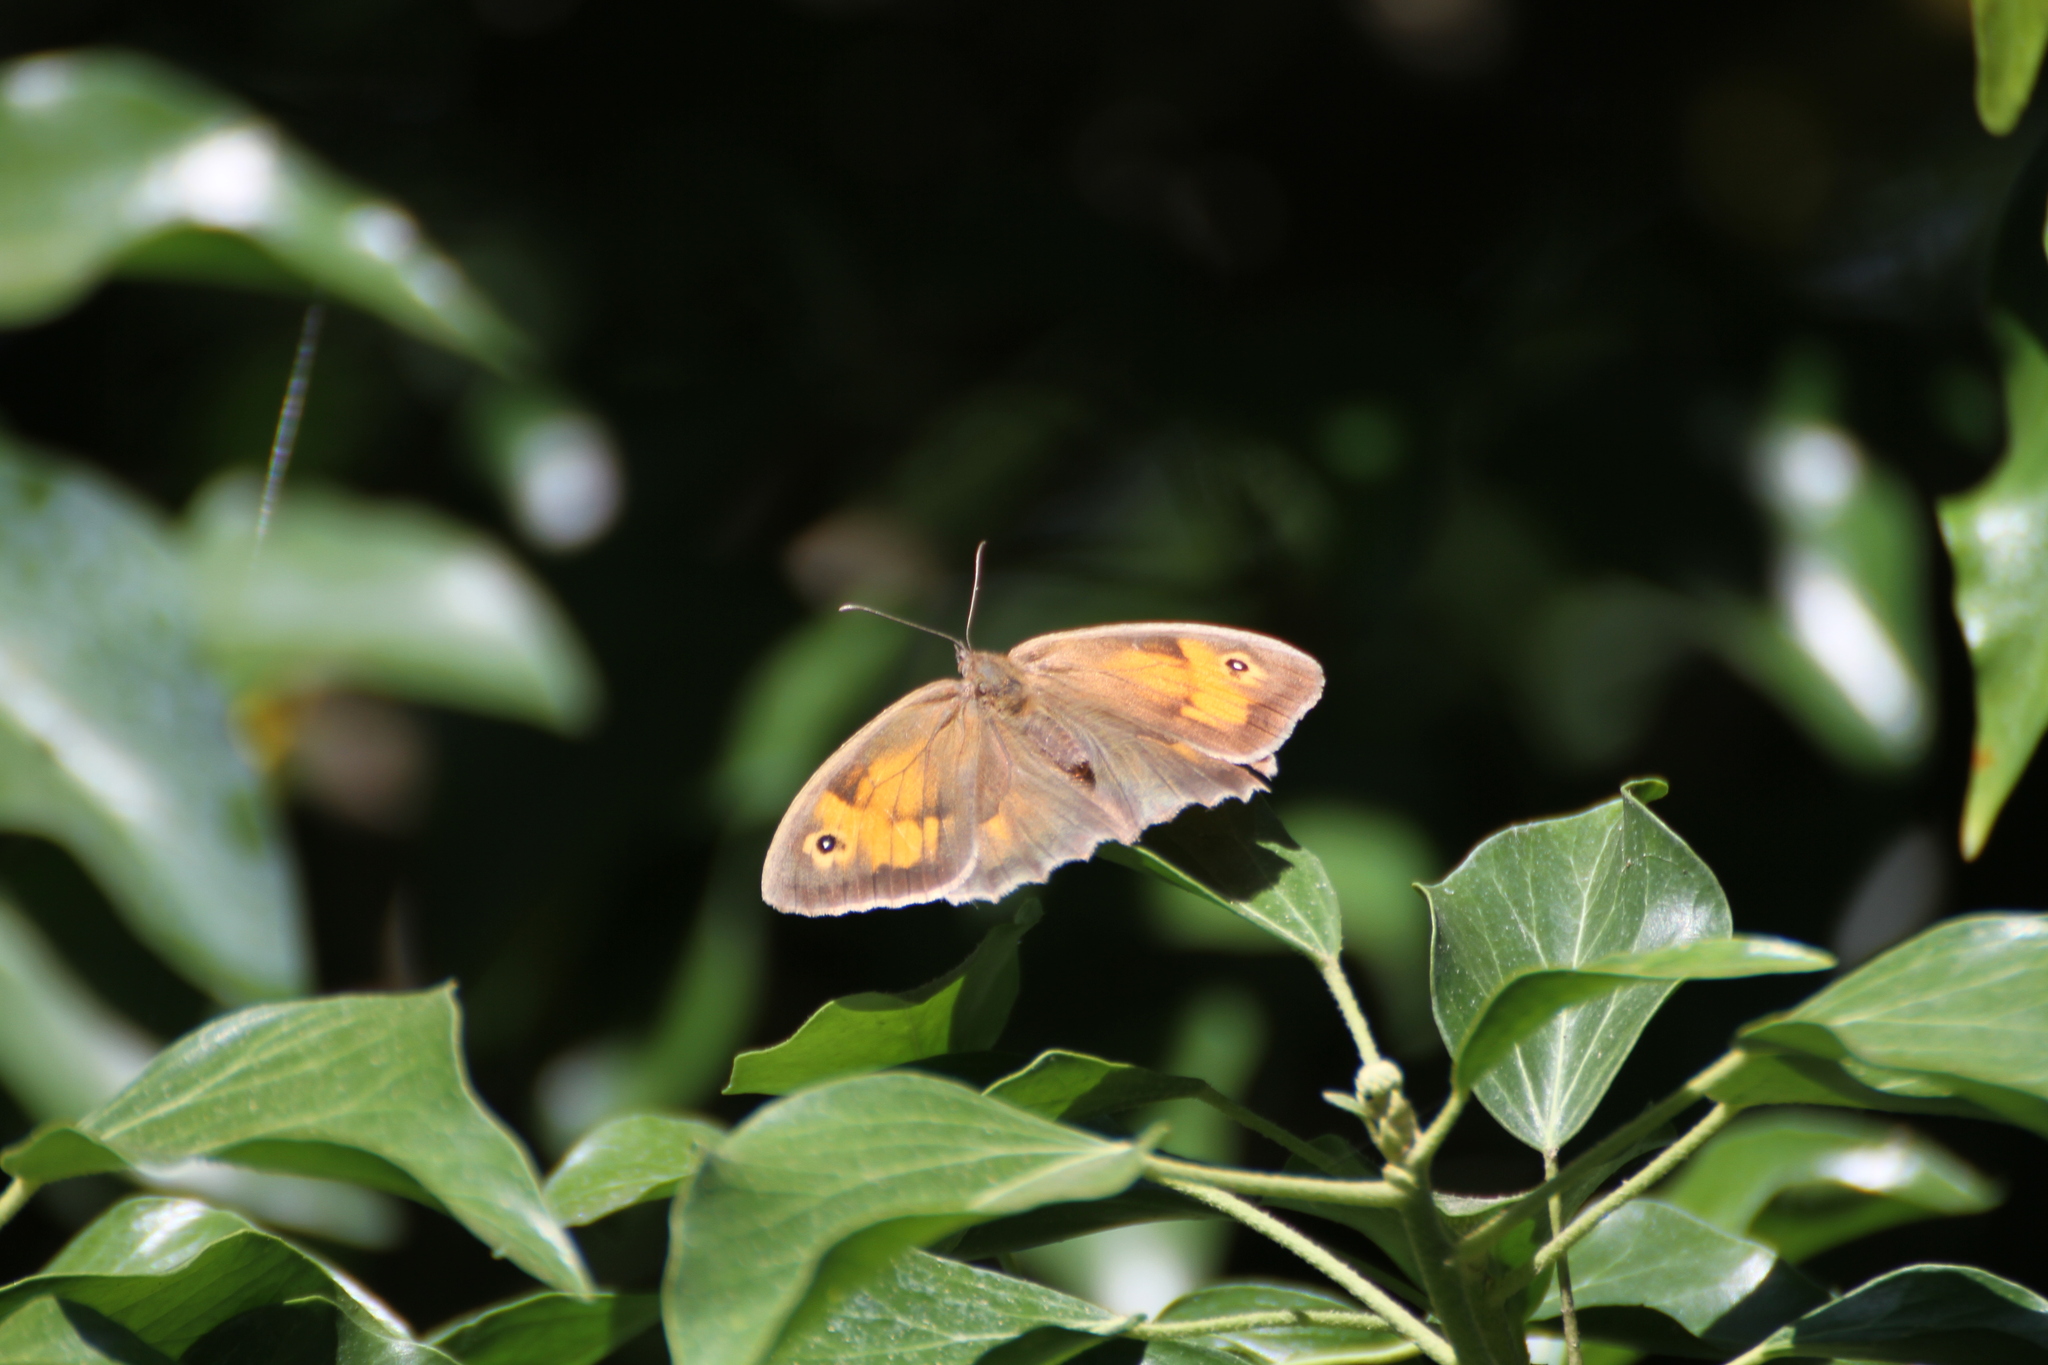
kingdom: Animalia
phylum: Arthropoda
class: Insecta
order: Lepidoptera
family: Nymphalidae
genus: Maniola
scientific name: Maniola jurtina
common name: Meadow brown
